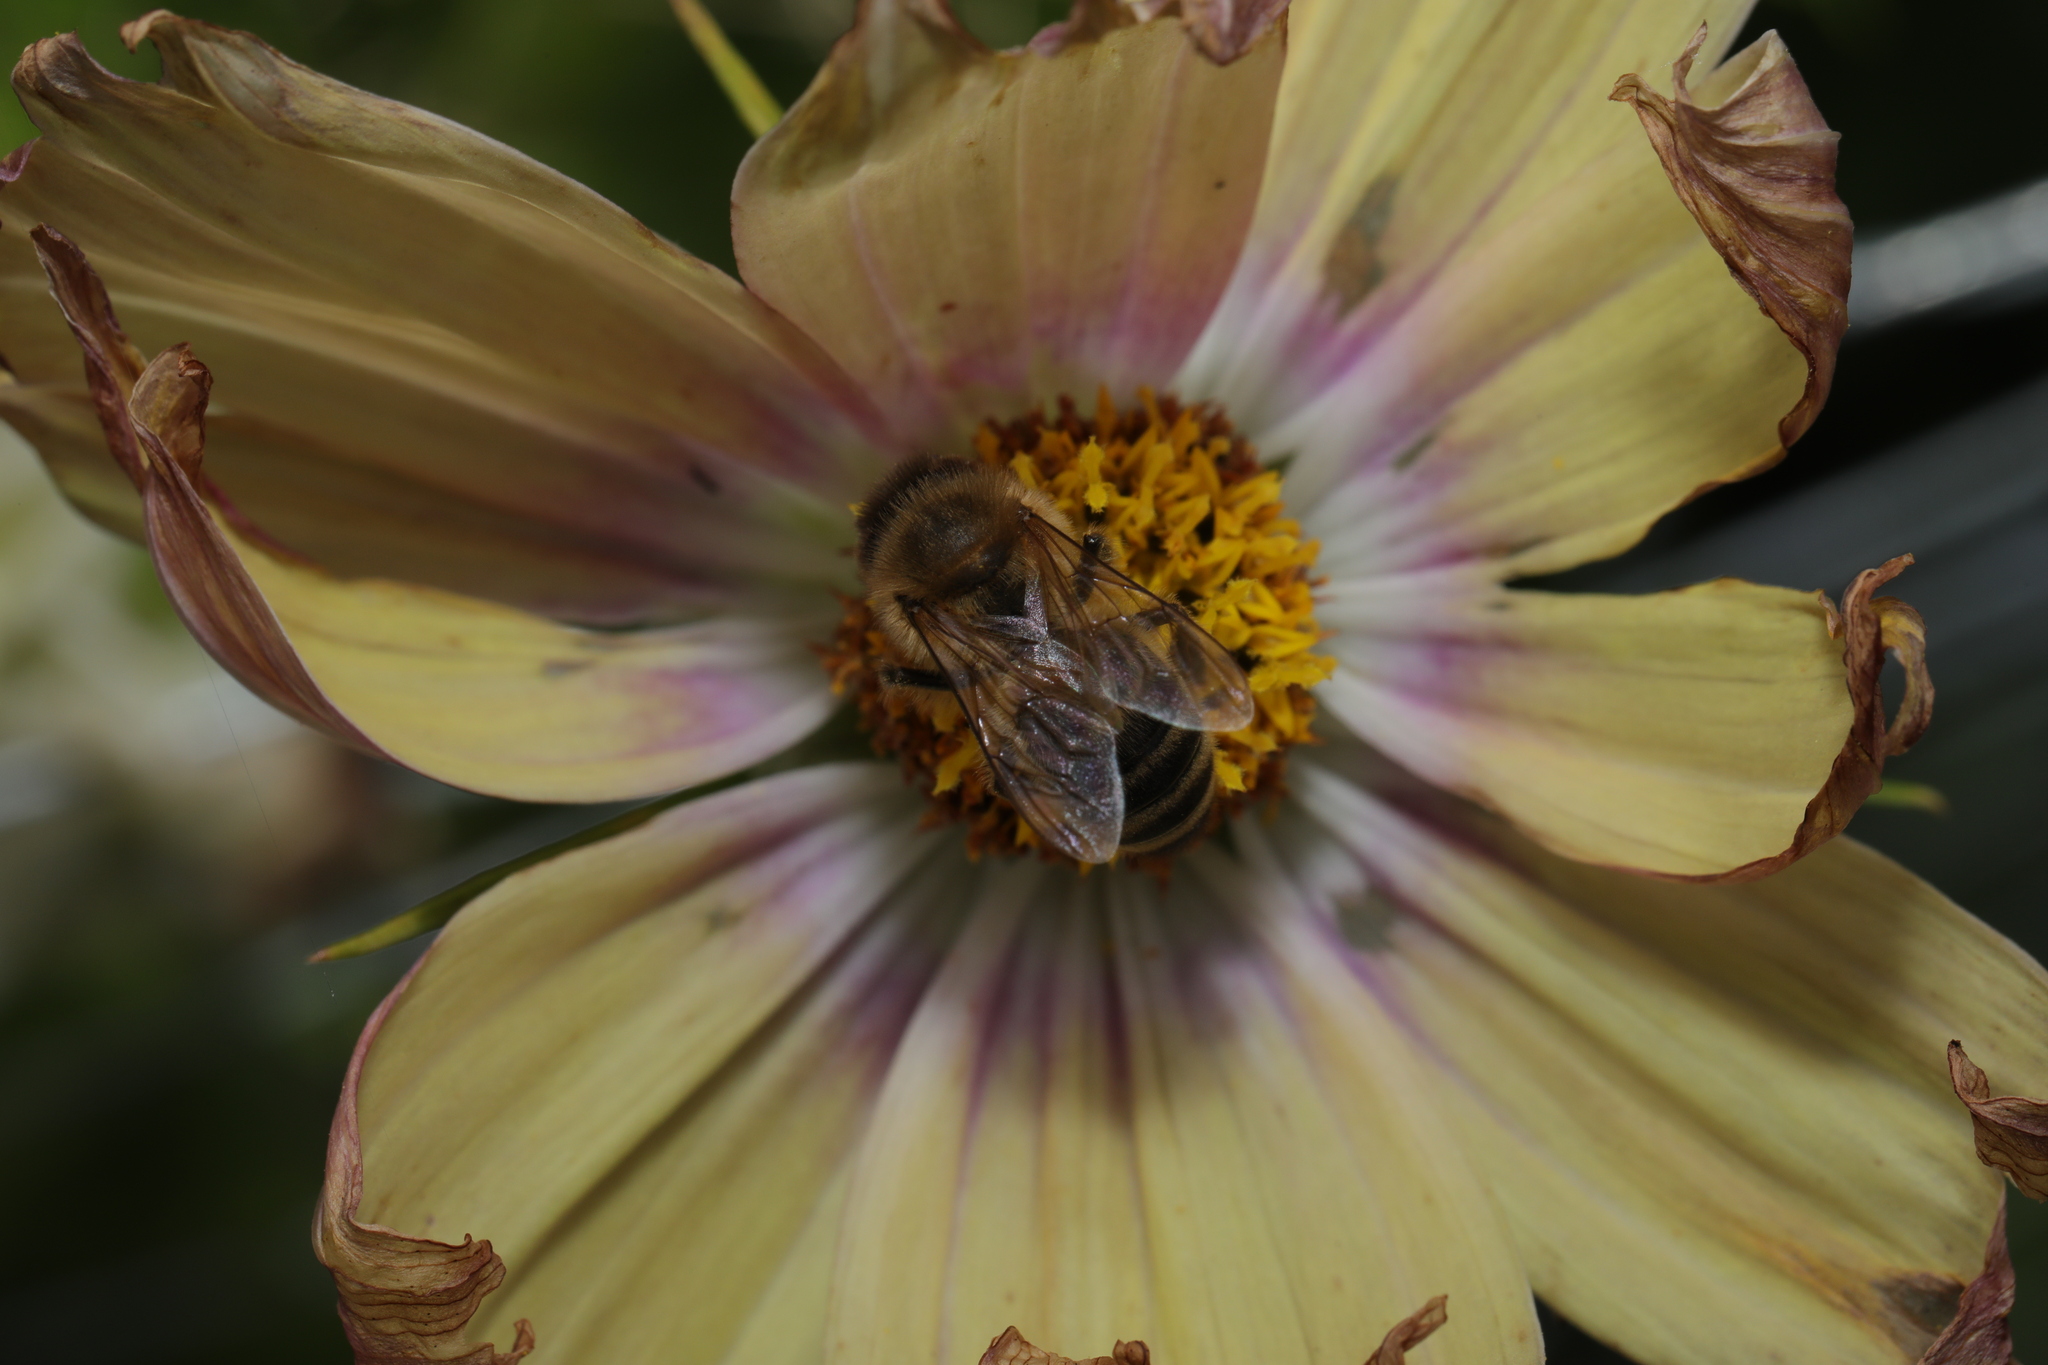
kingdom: Animalia
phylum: Arthropoda
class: Insecta
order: Hymenoptera
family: Apidae
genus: Apis
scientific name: Apis mellifera
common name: Honey bee
